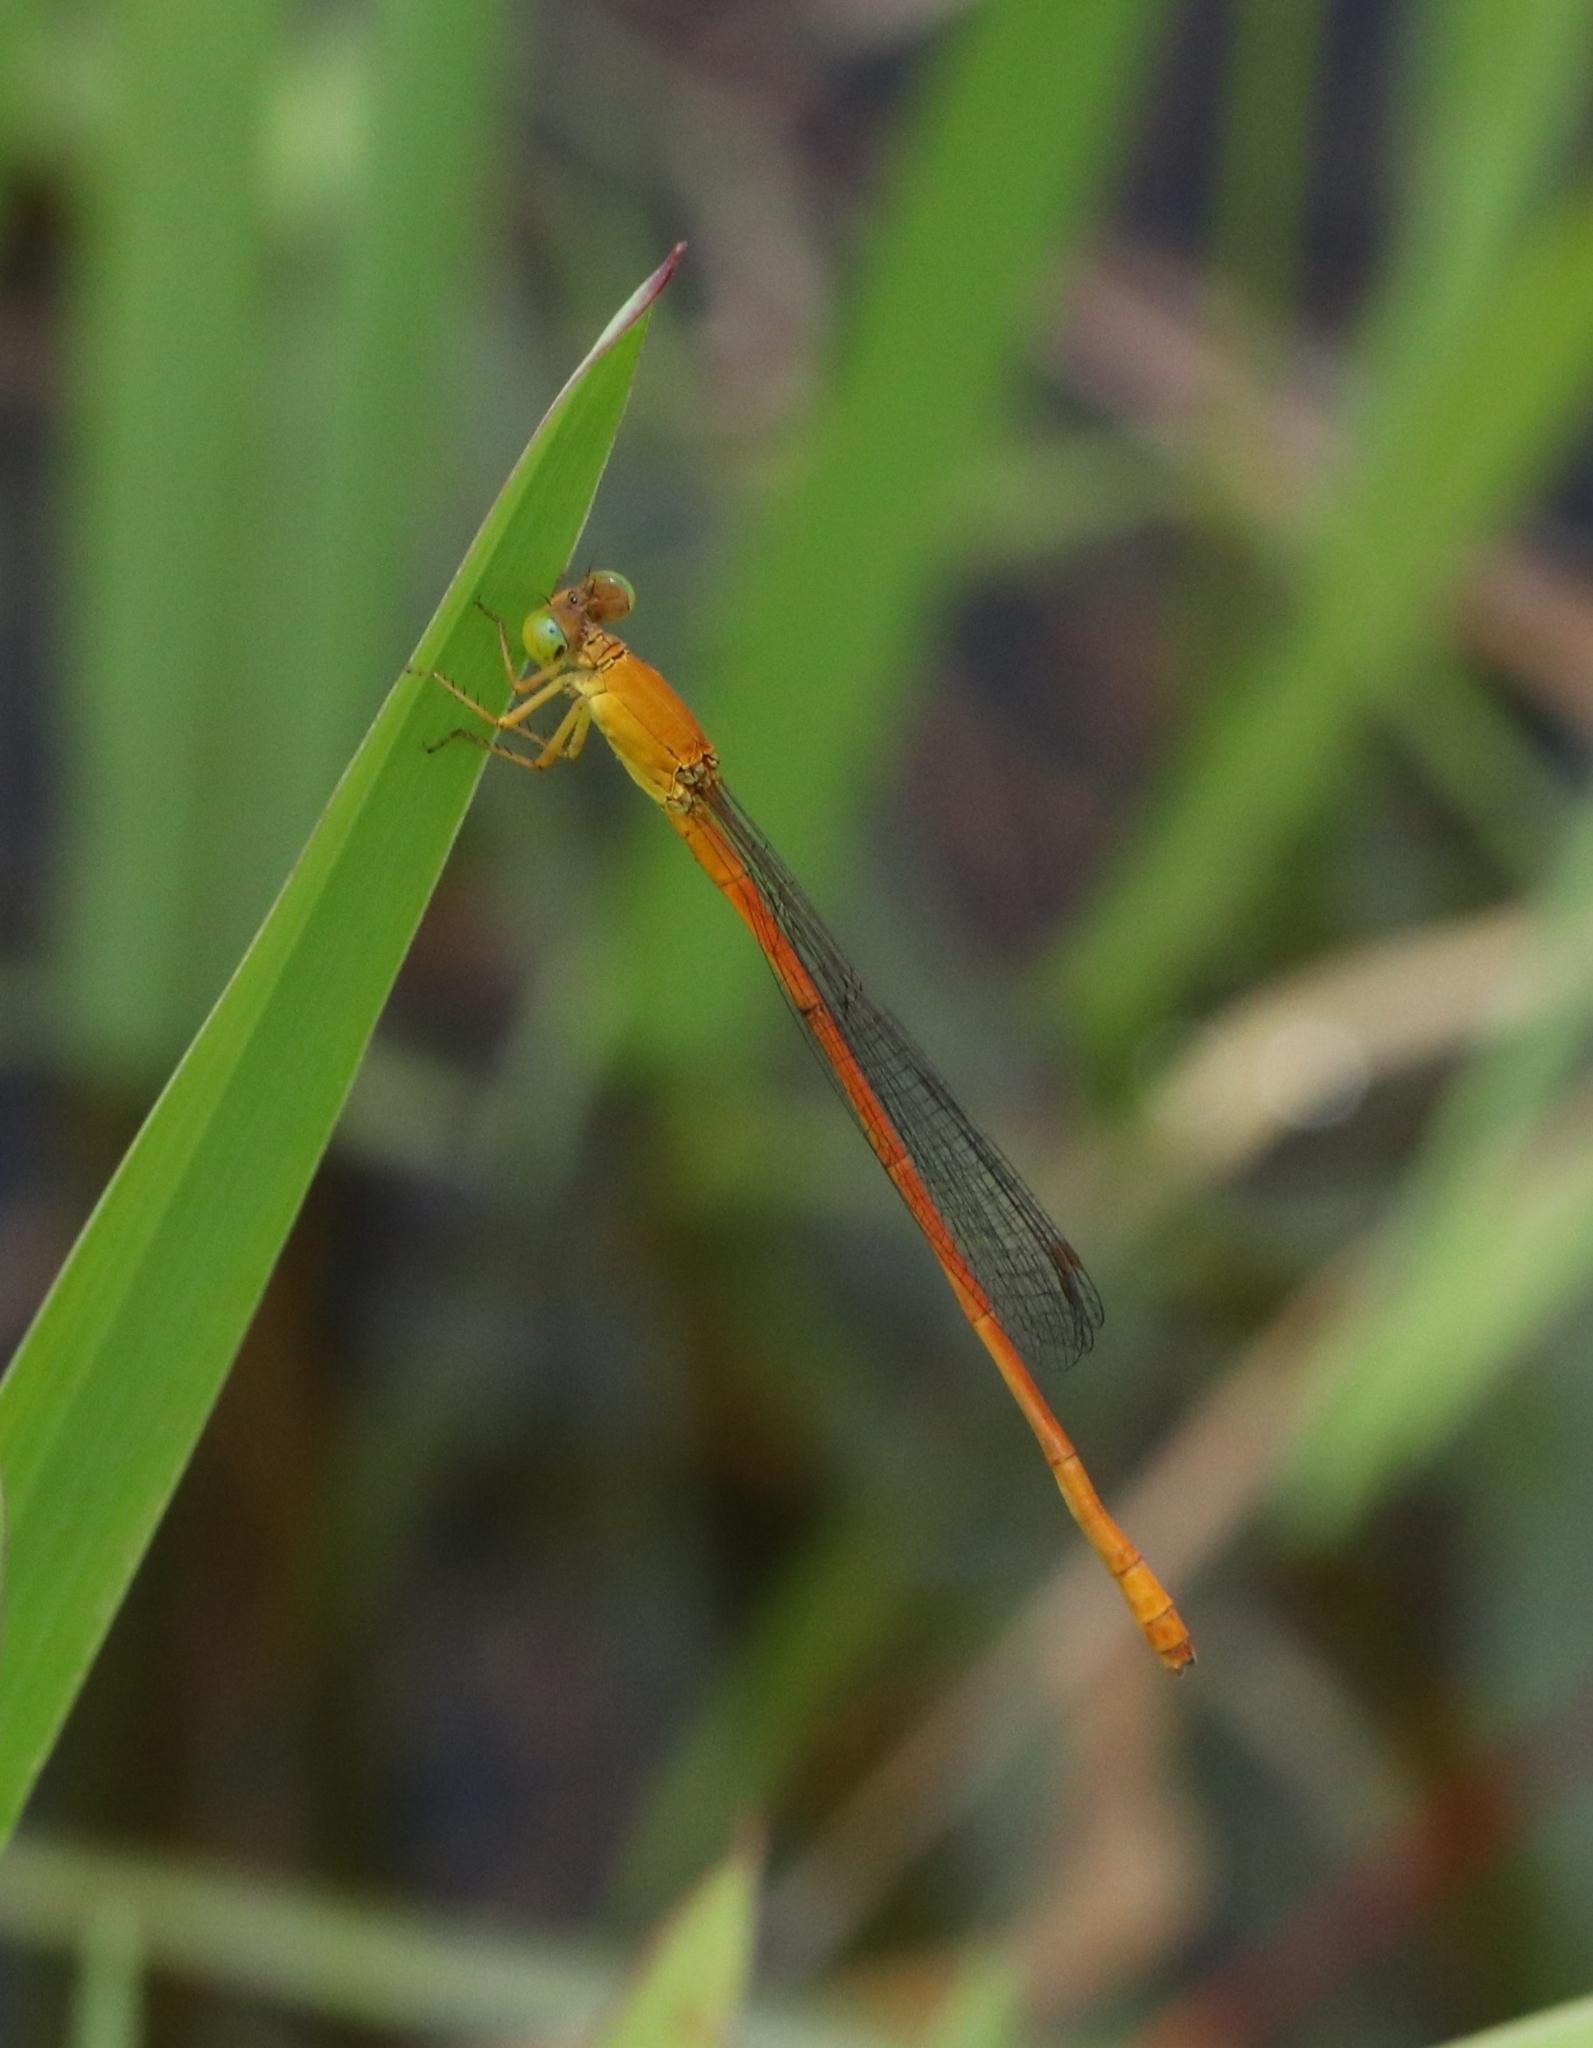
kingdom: Animalia
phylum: Arthropoda
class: Insecta
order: Odonata
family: Coenagrionidae
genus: Ceriagrion
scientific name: Ceriagrion rubiae
